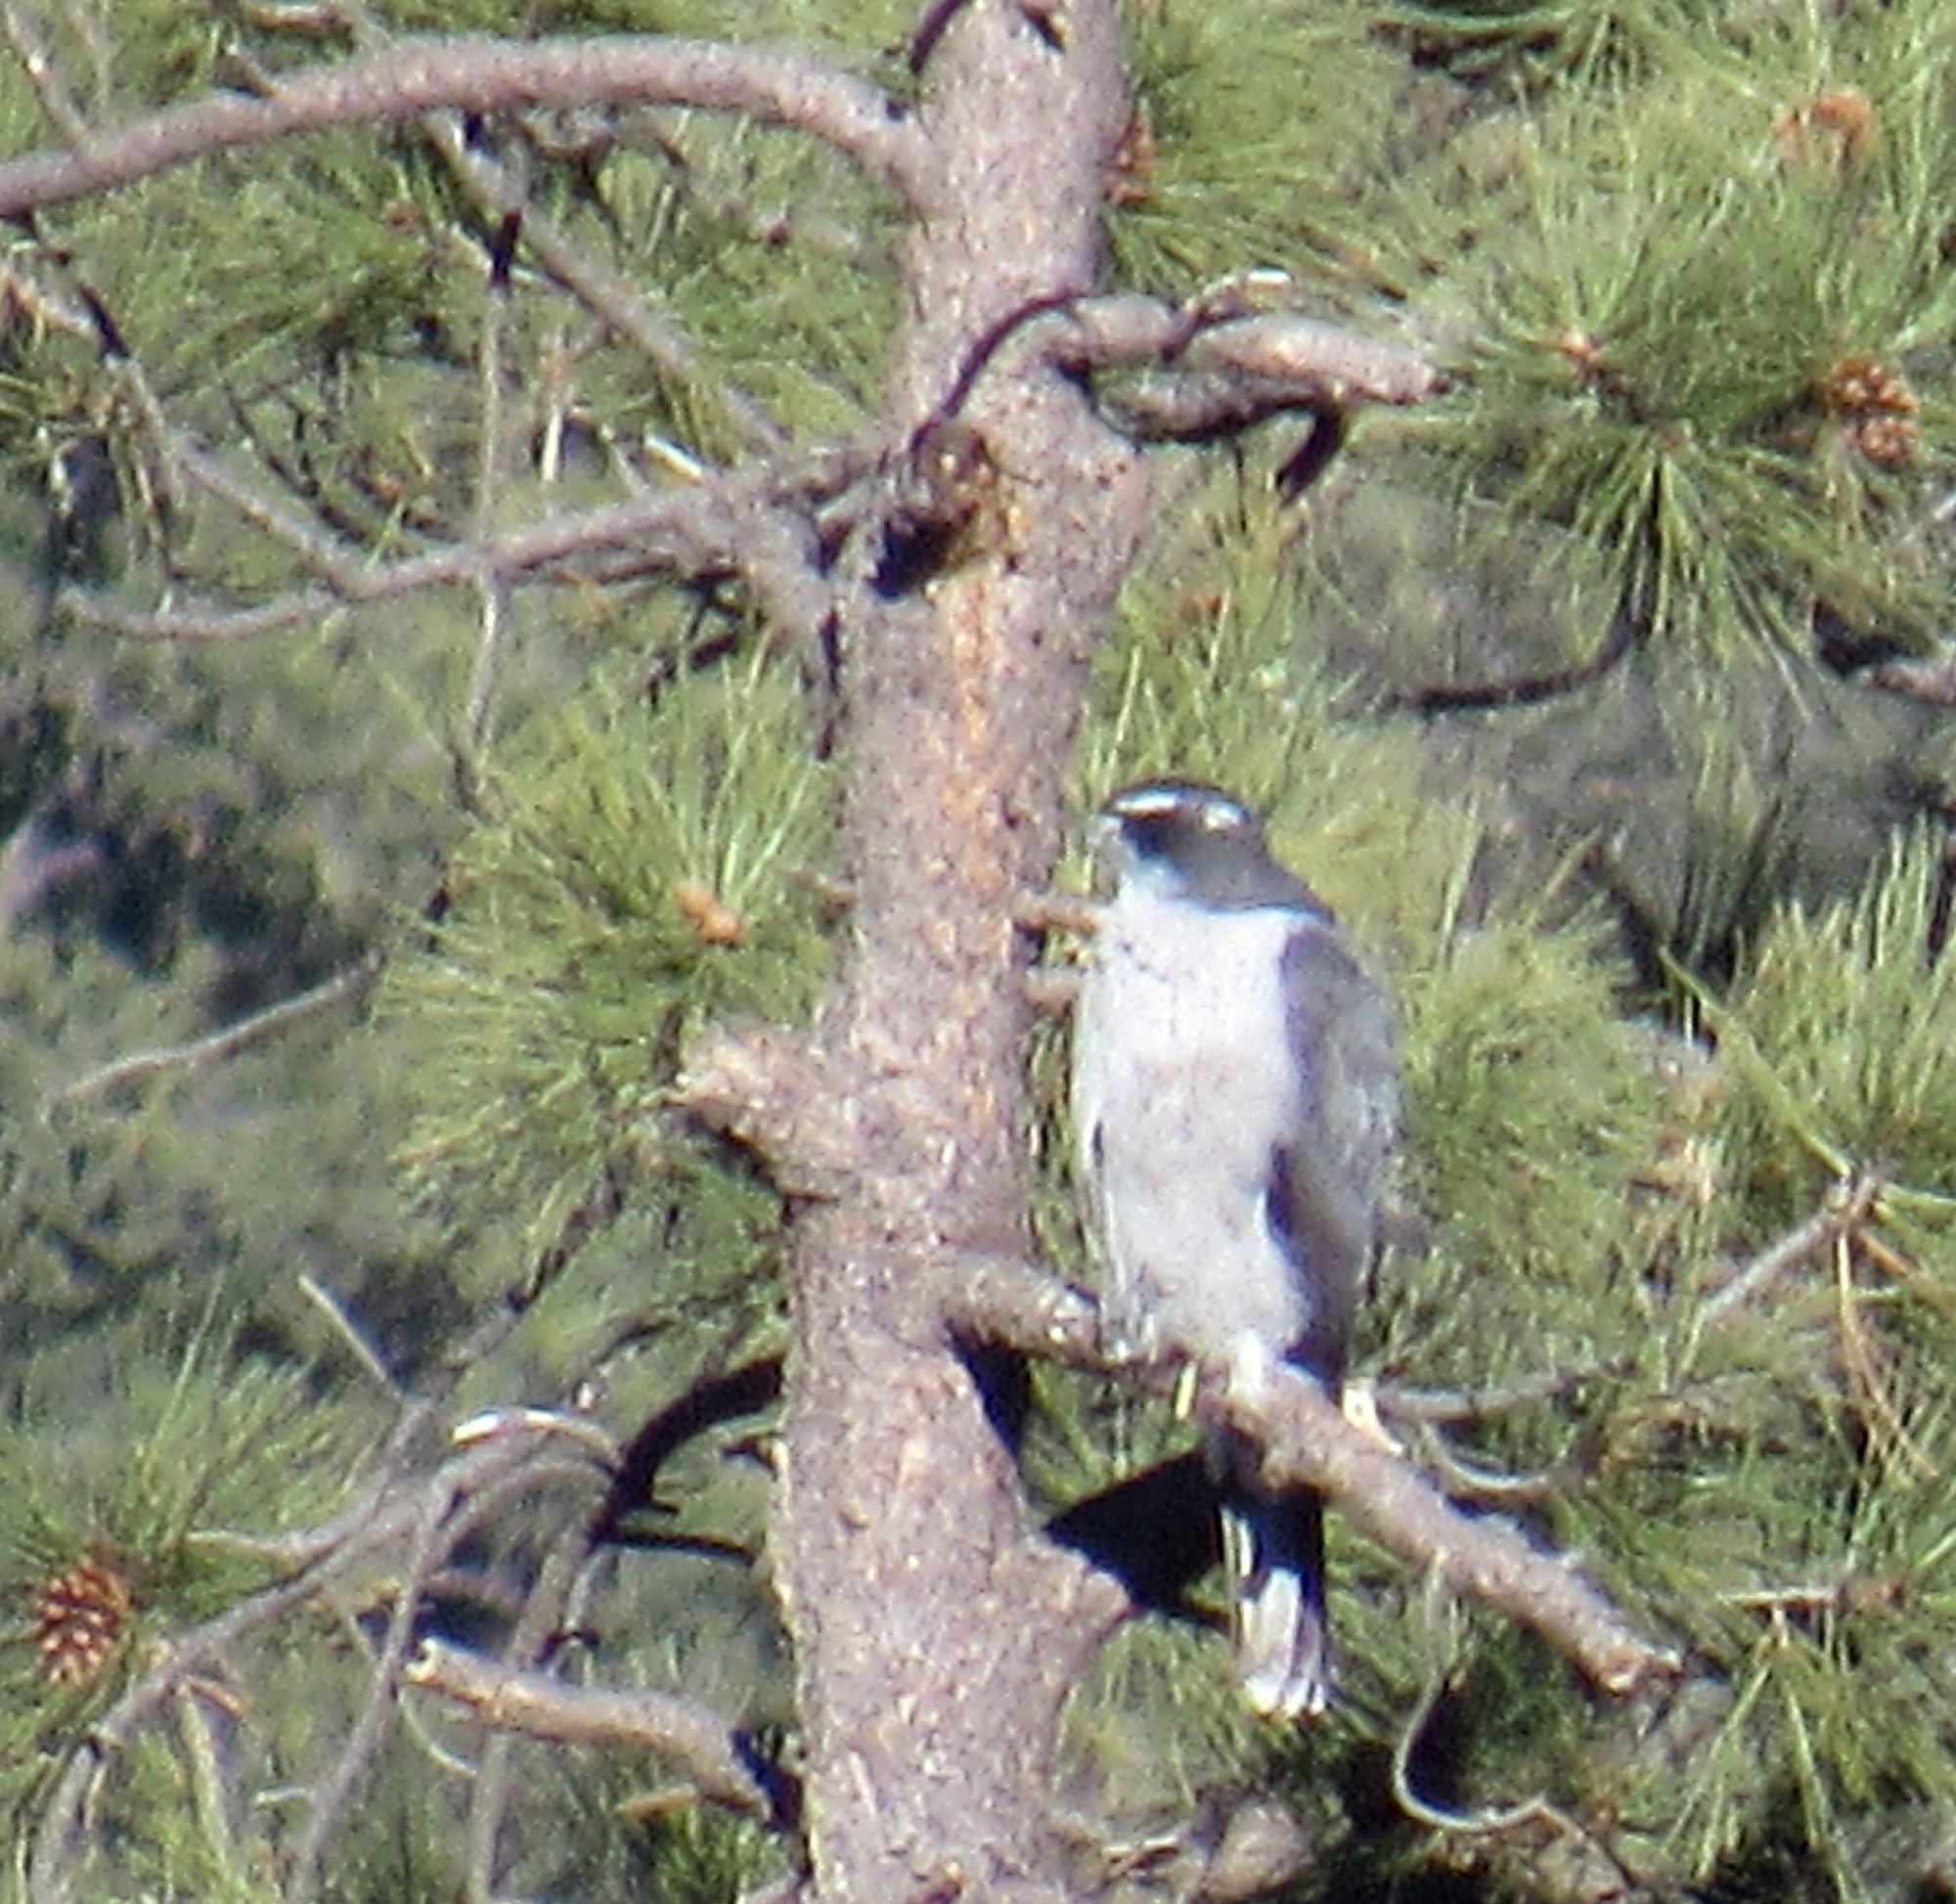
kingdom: Animalia
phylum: Chordata
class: Aves
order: Accipitriformes
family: Accipitridae
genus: Accipiter
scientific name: Accipiter gentilis
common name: Northern goshawk
